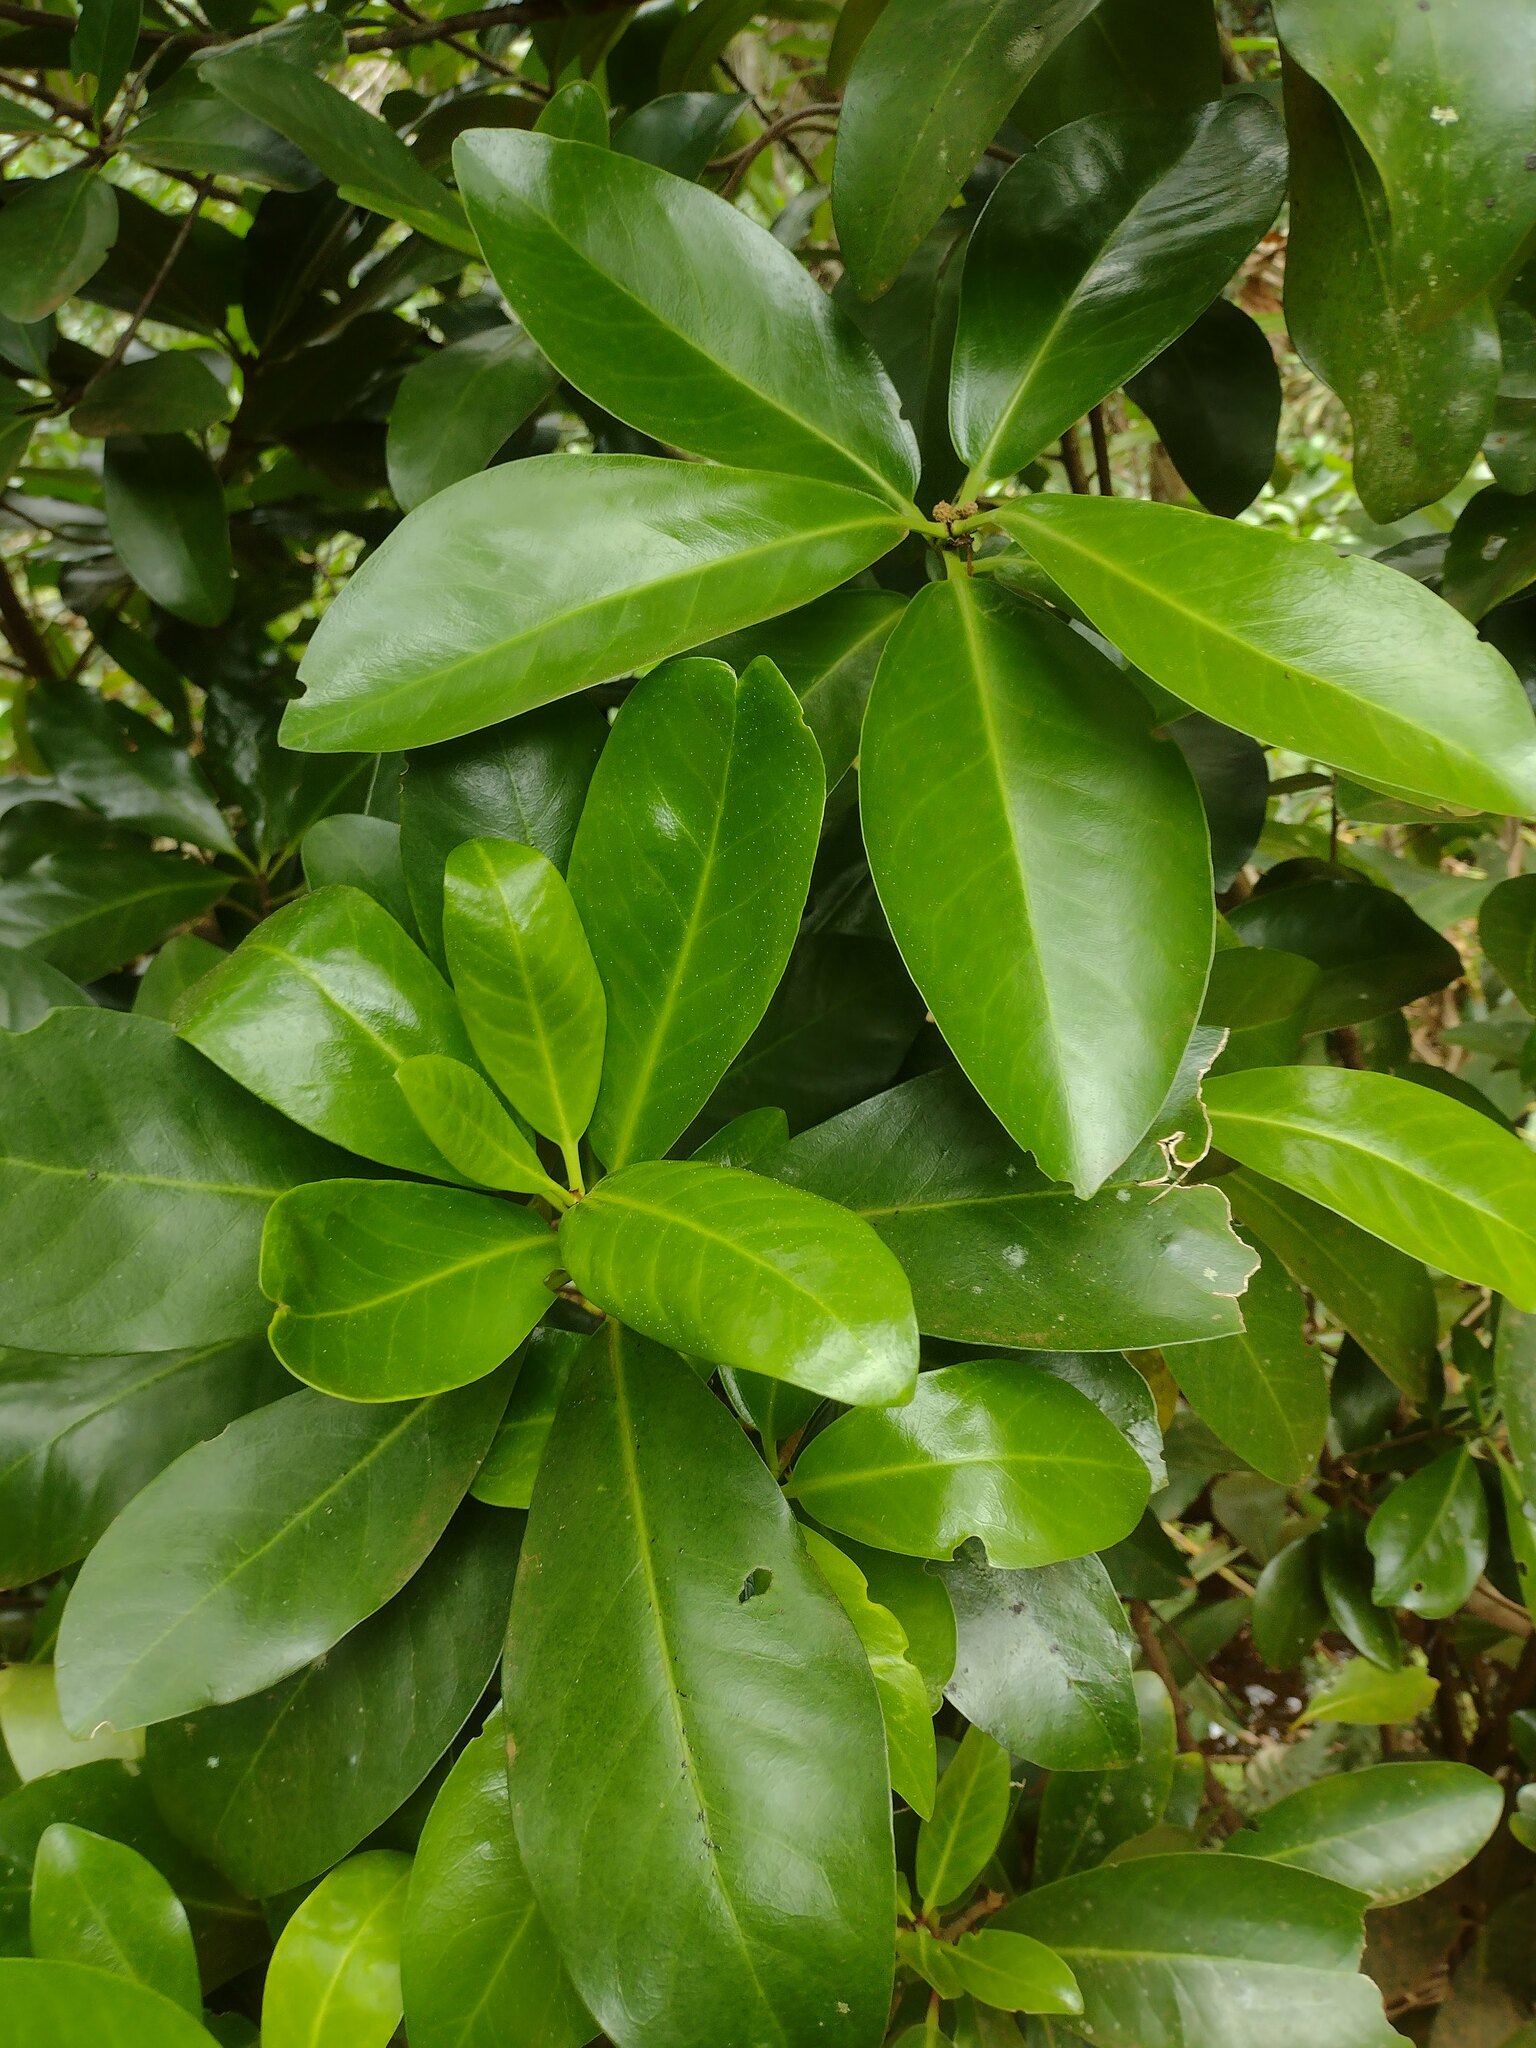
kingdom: Plantae
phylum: Tracheophyta
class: Magnoliopsida
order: Cucurbitales
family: Corynocarpaceae
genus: Corynocarpus
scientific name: Corynocarpus laevigatus
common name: New zealand laurel
